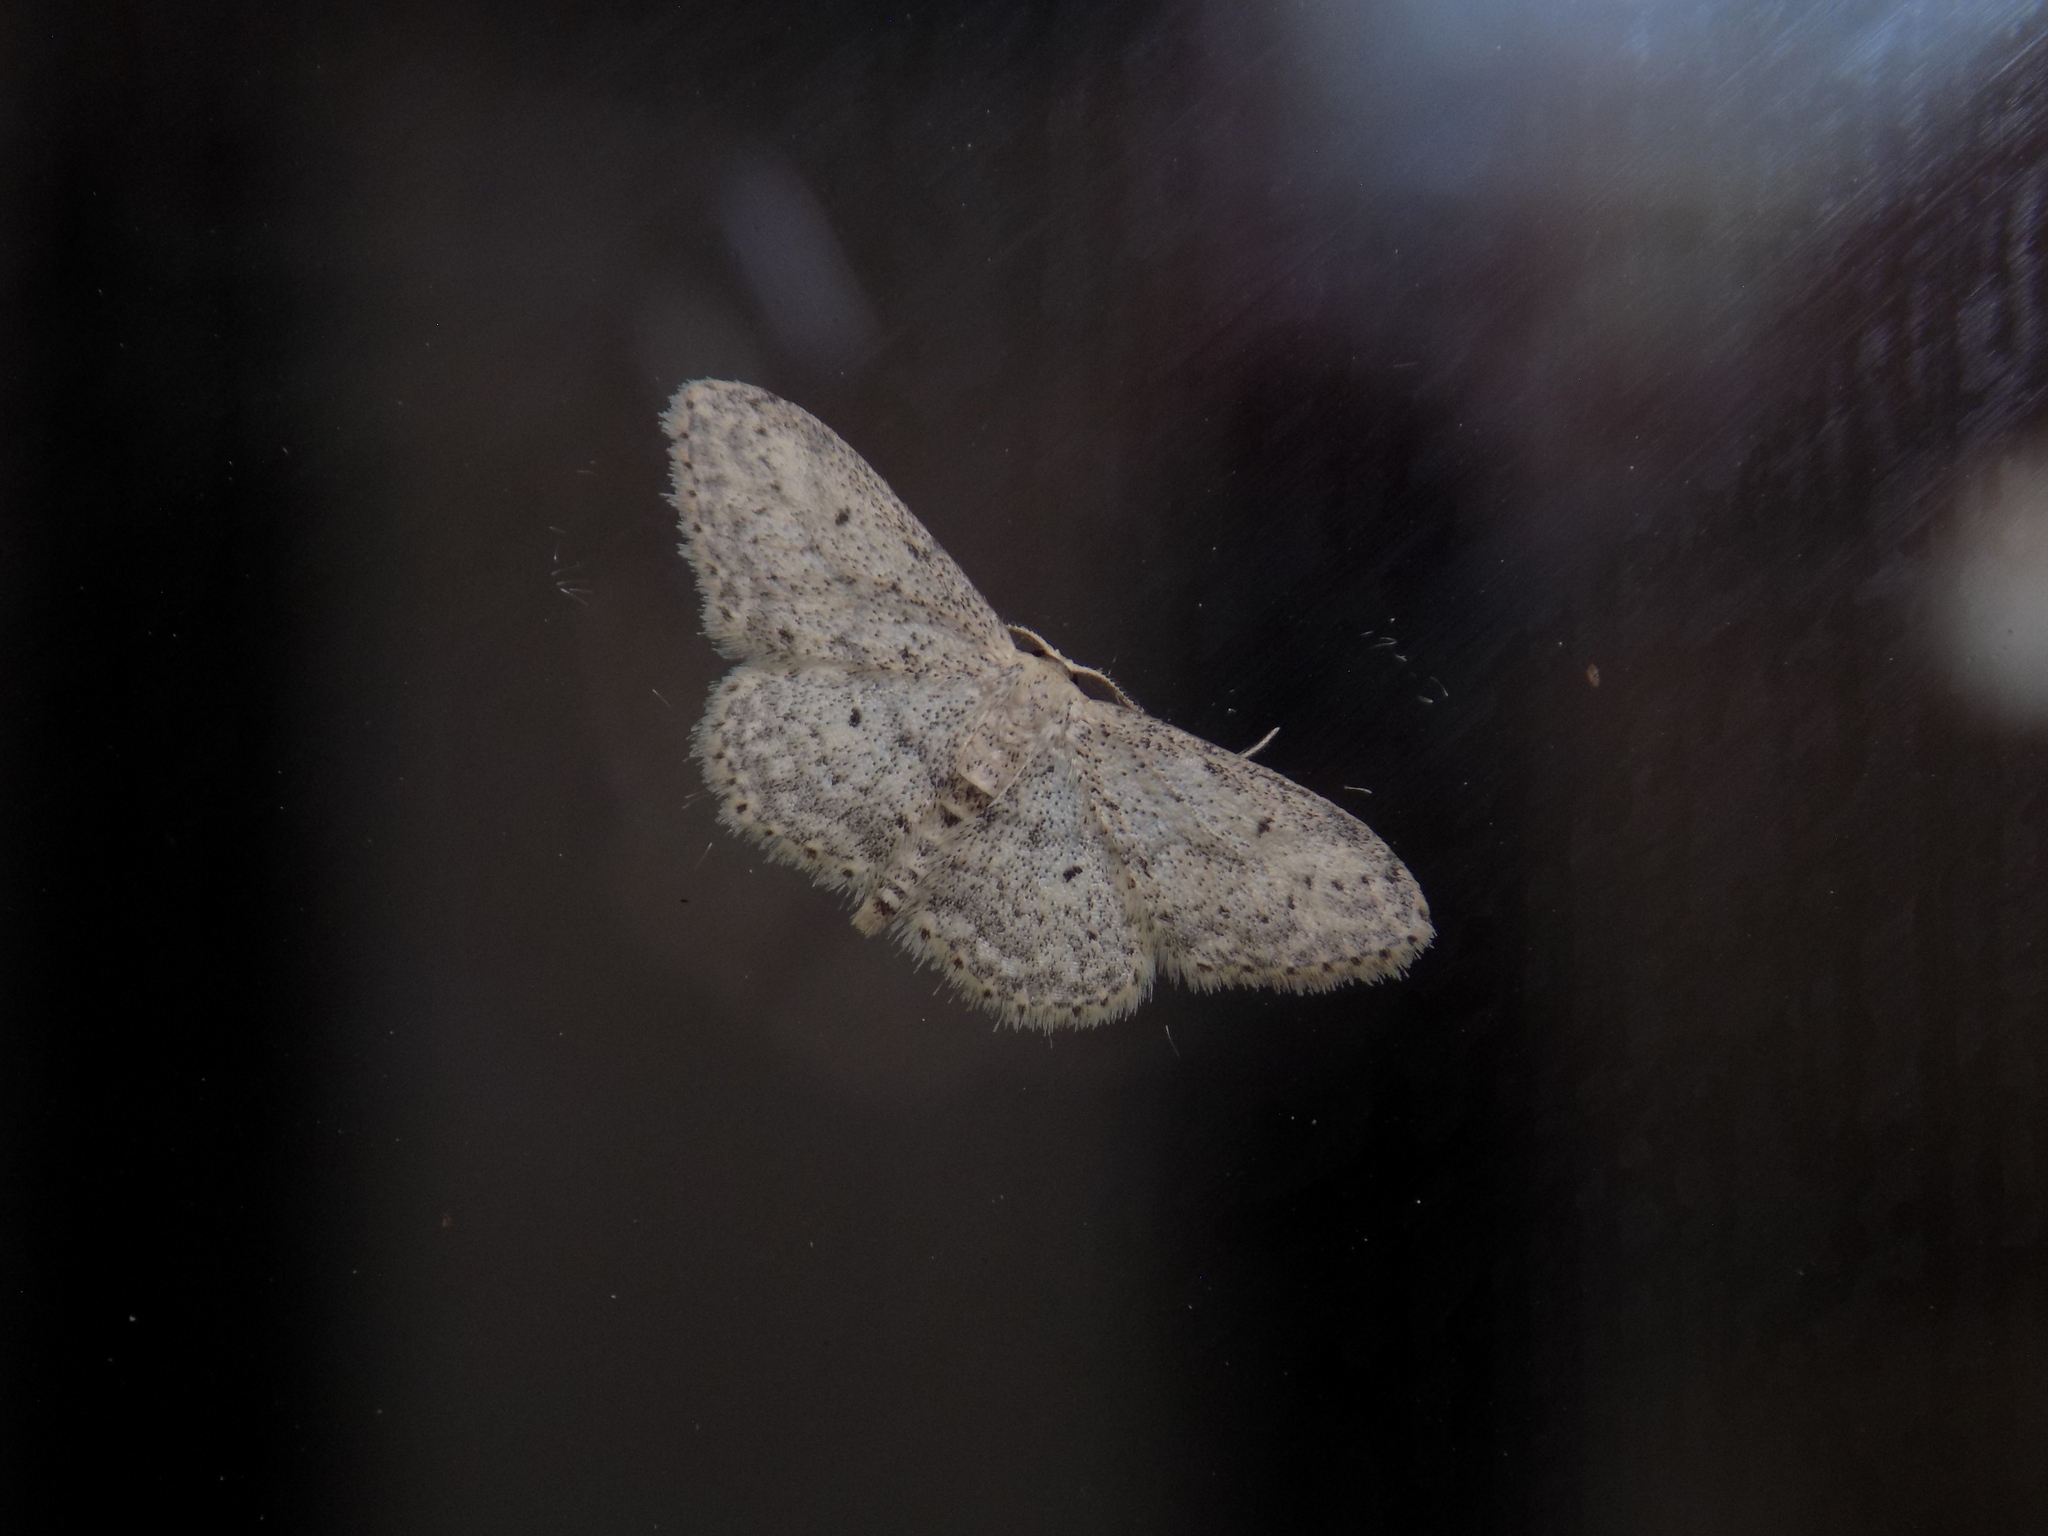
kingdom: Animalia
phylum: Arthropoda
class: Insecta
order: Lepidoptera
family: Geometridae
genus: Idaea
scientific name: Idaea seriata
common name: Small dusty wave
